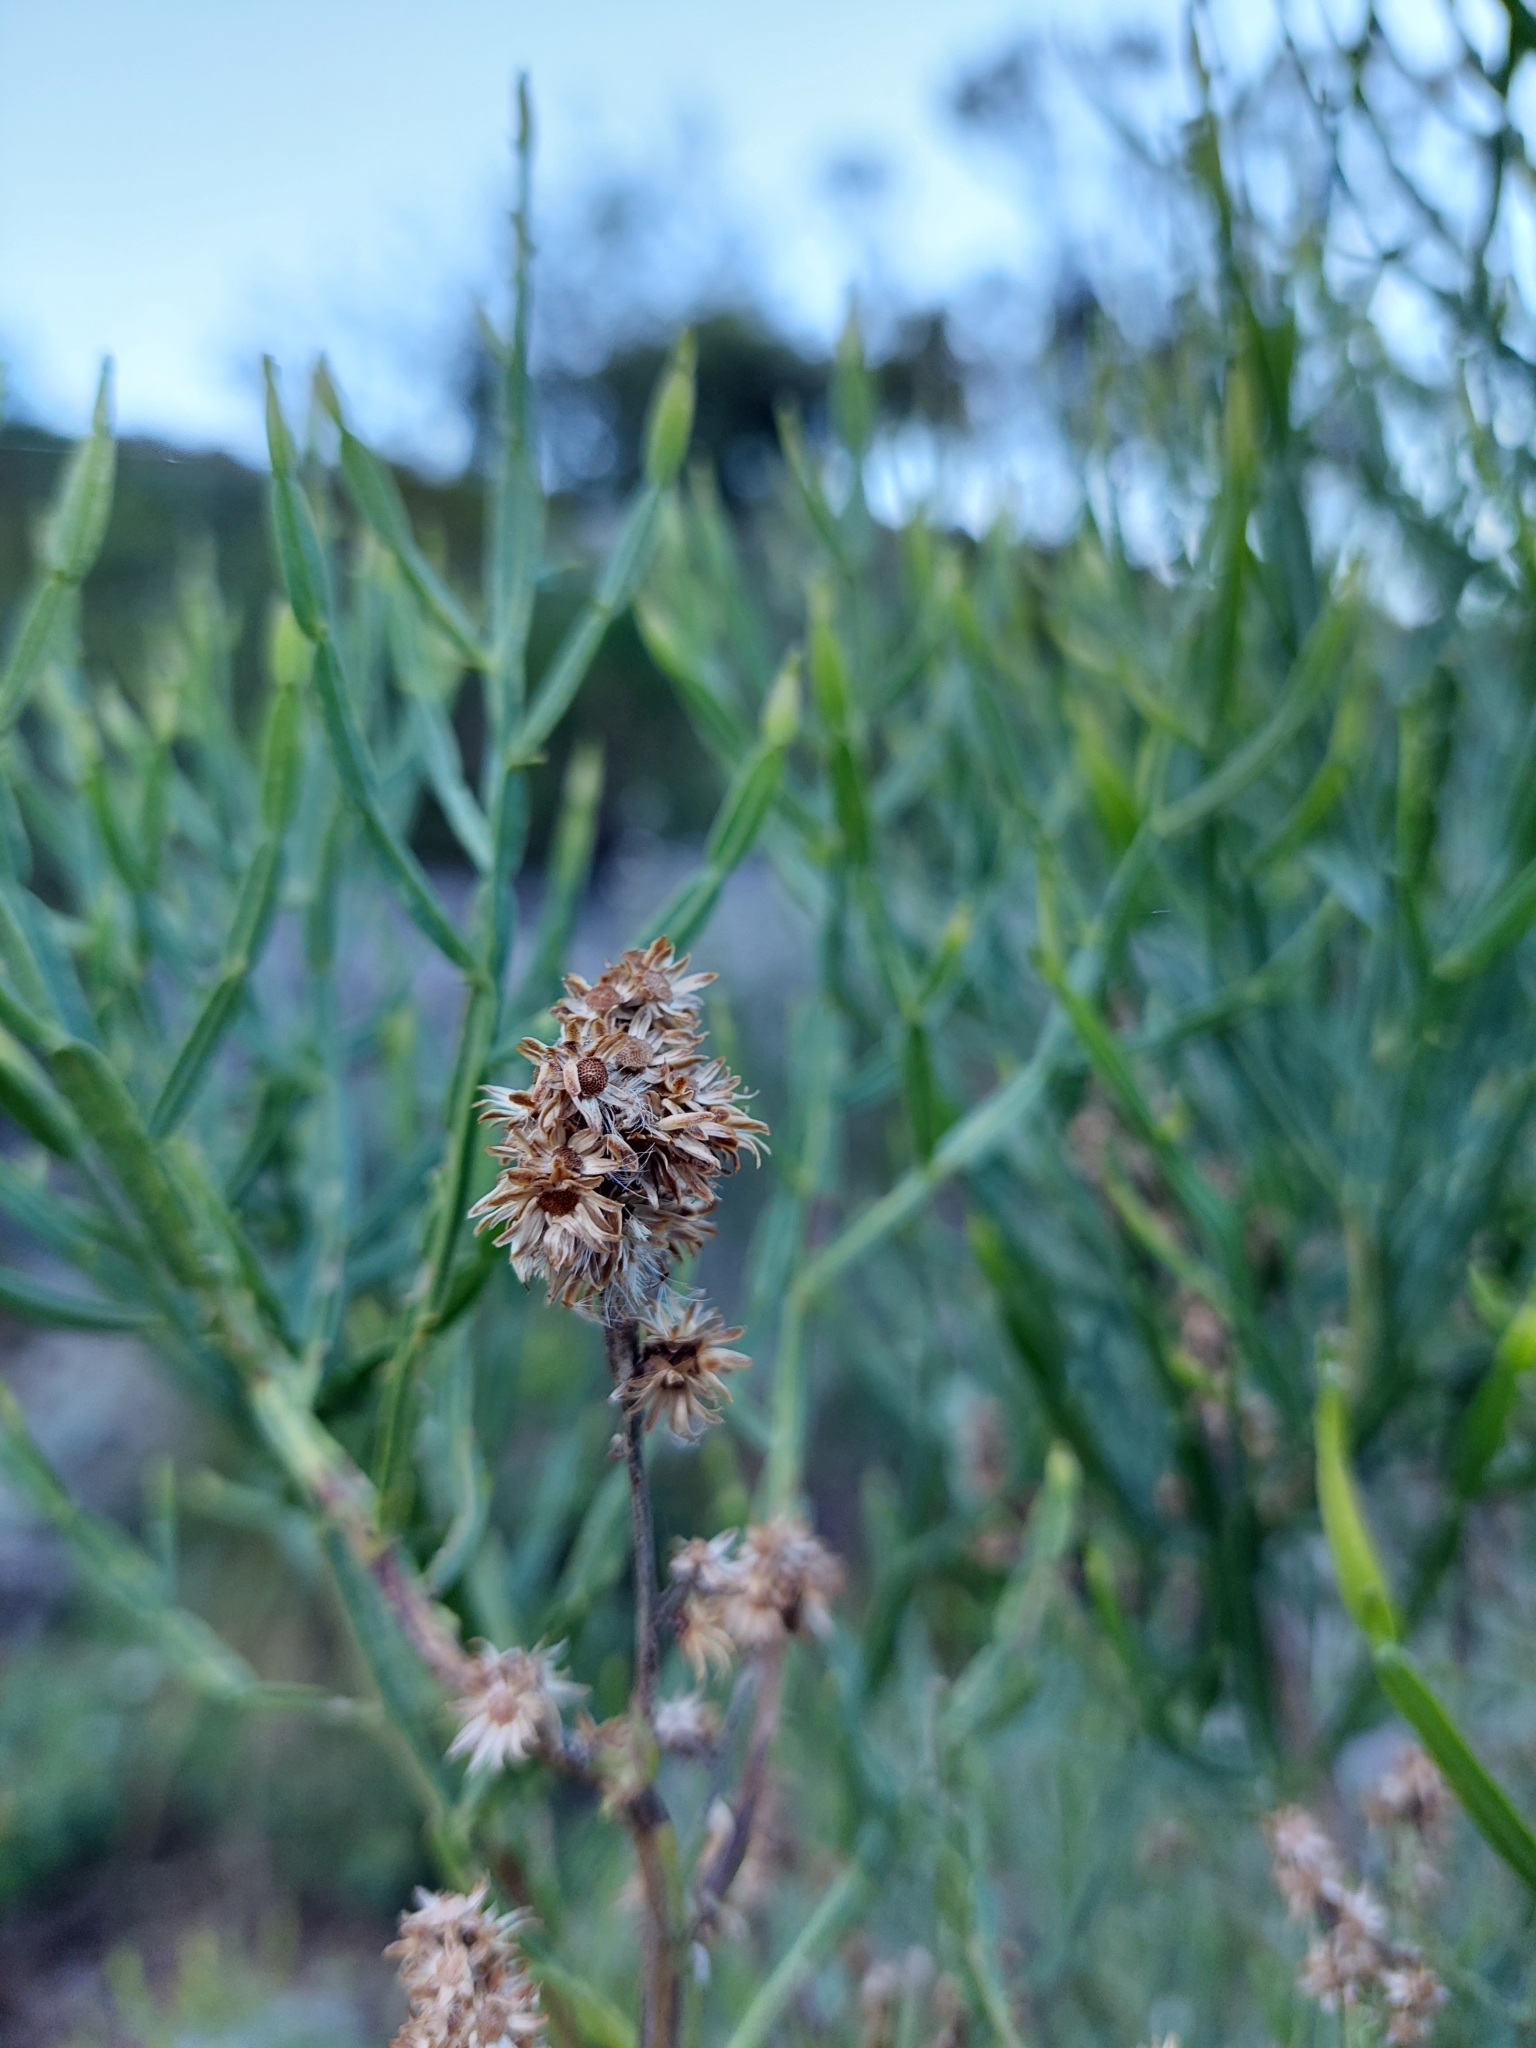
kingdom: Plantae
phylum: Tracheophyta
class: Magnoliopsida
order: Asterales
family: Asteraceae
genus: Baccharis
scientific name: Baccharis articulata
